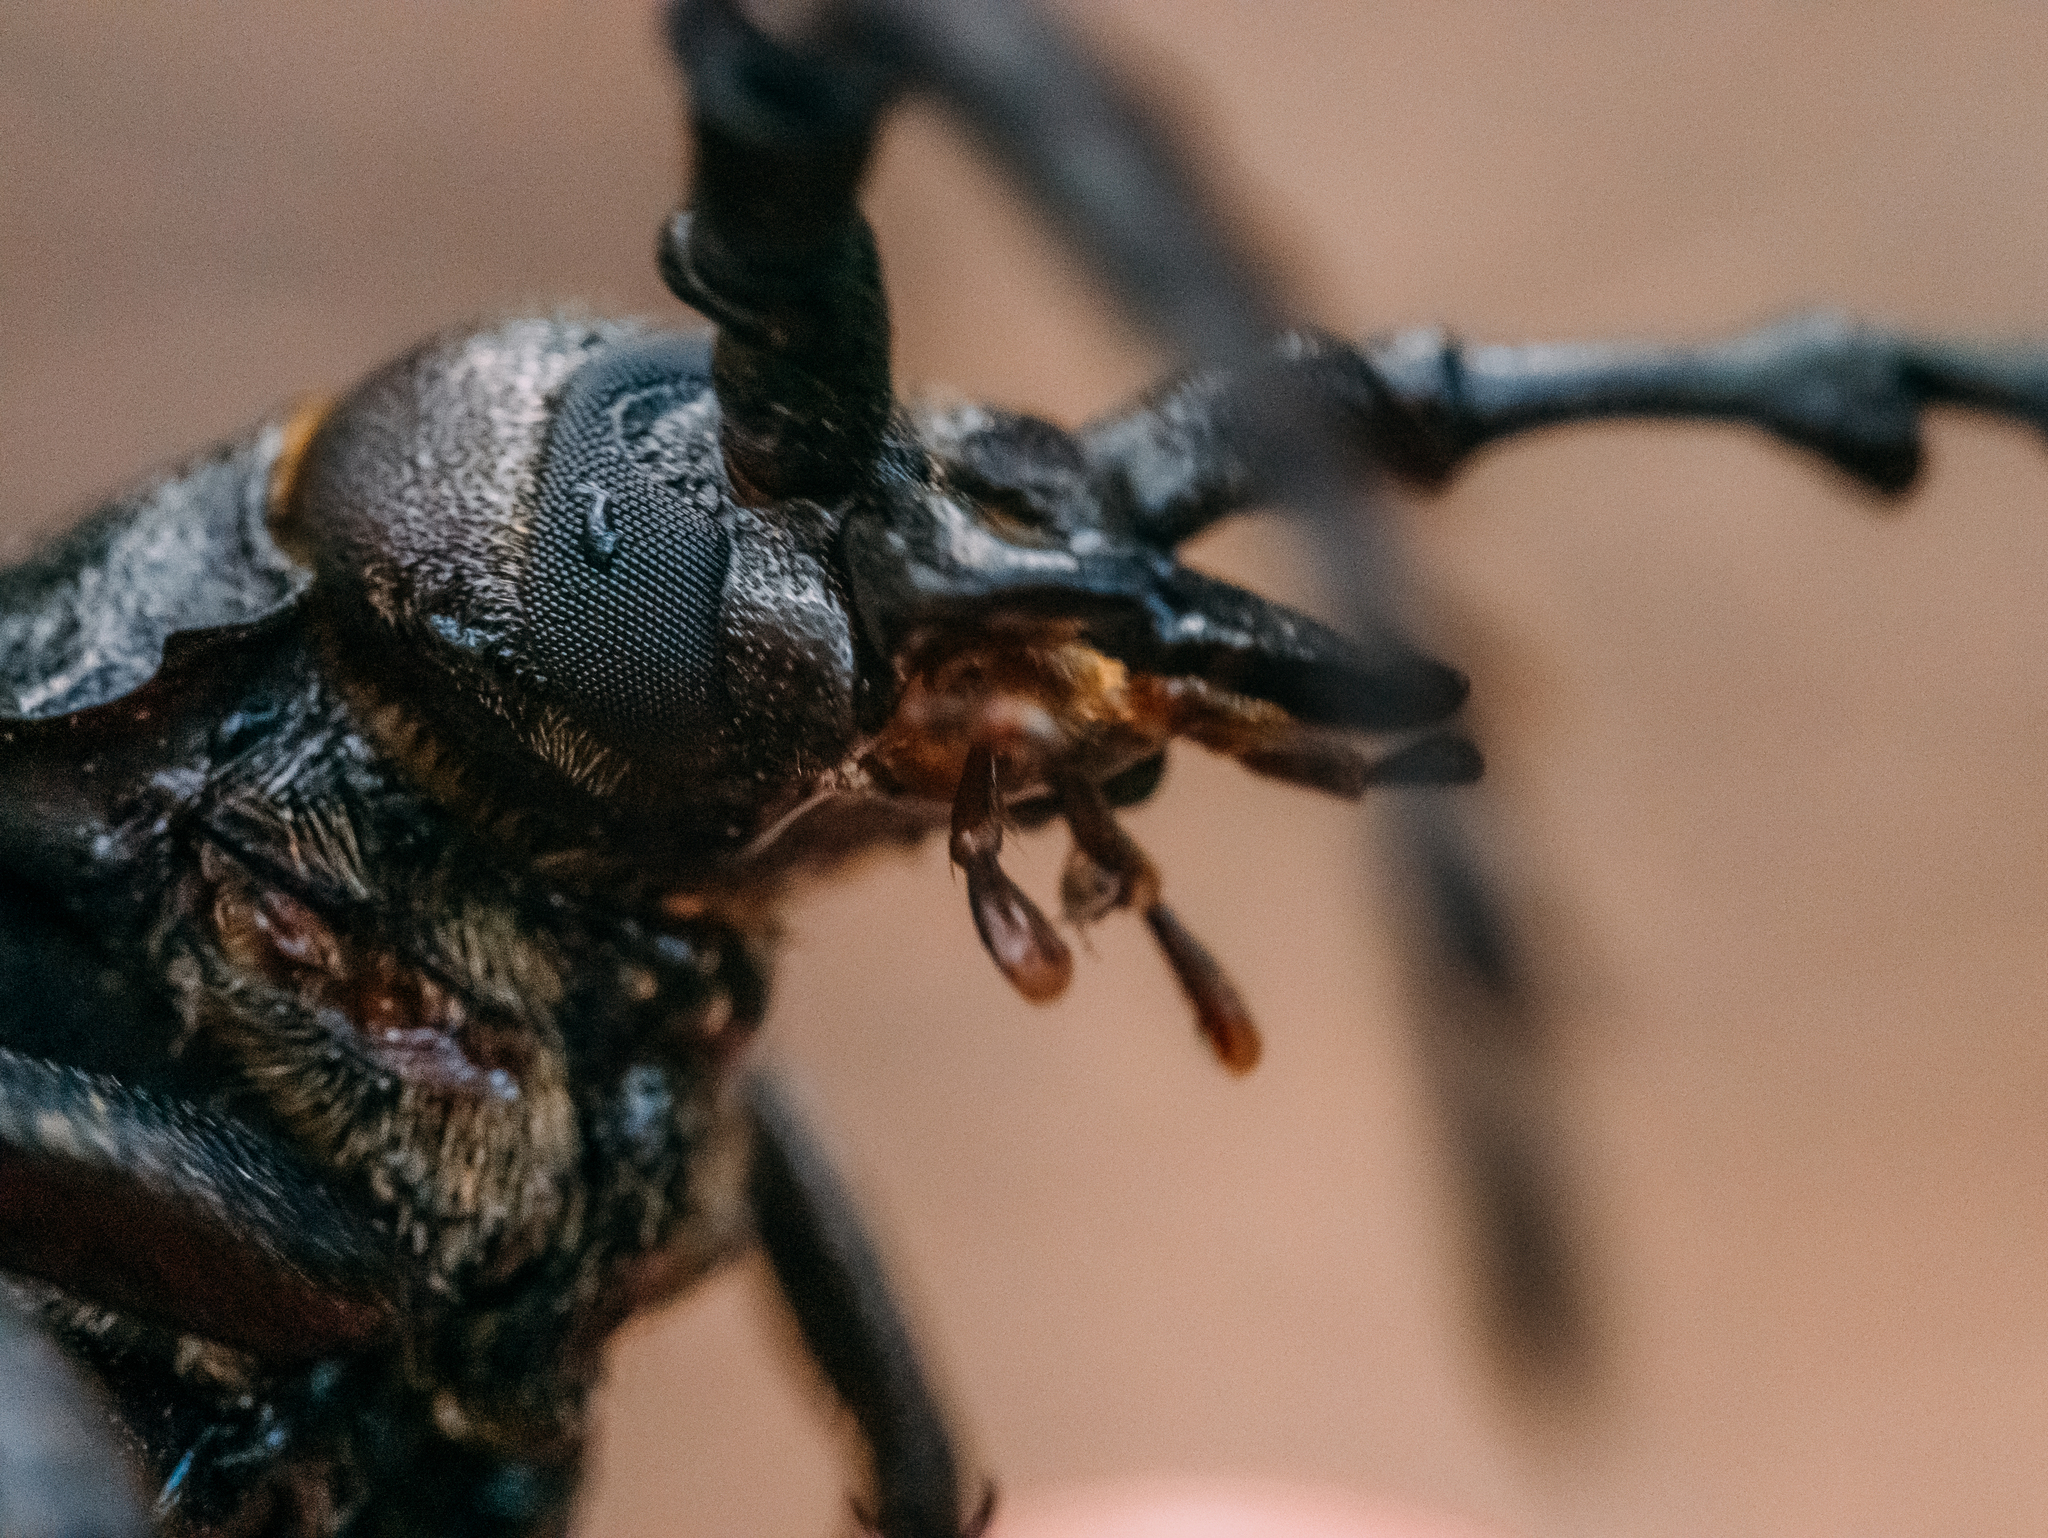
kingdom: Animalia
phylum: Arthropoda
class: Insecta
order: Coleoptera
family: Cerambycidae
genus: Prionus
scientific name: Prionus coriarius
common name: Tanner beetle
